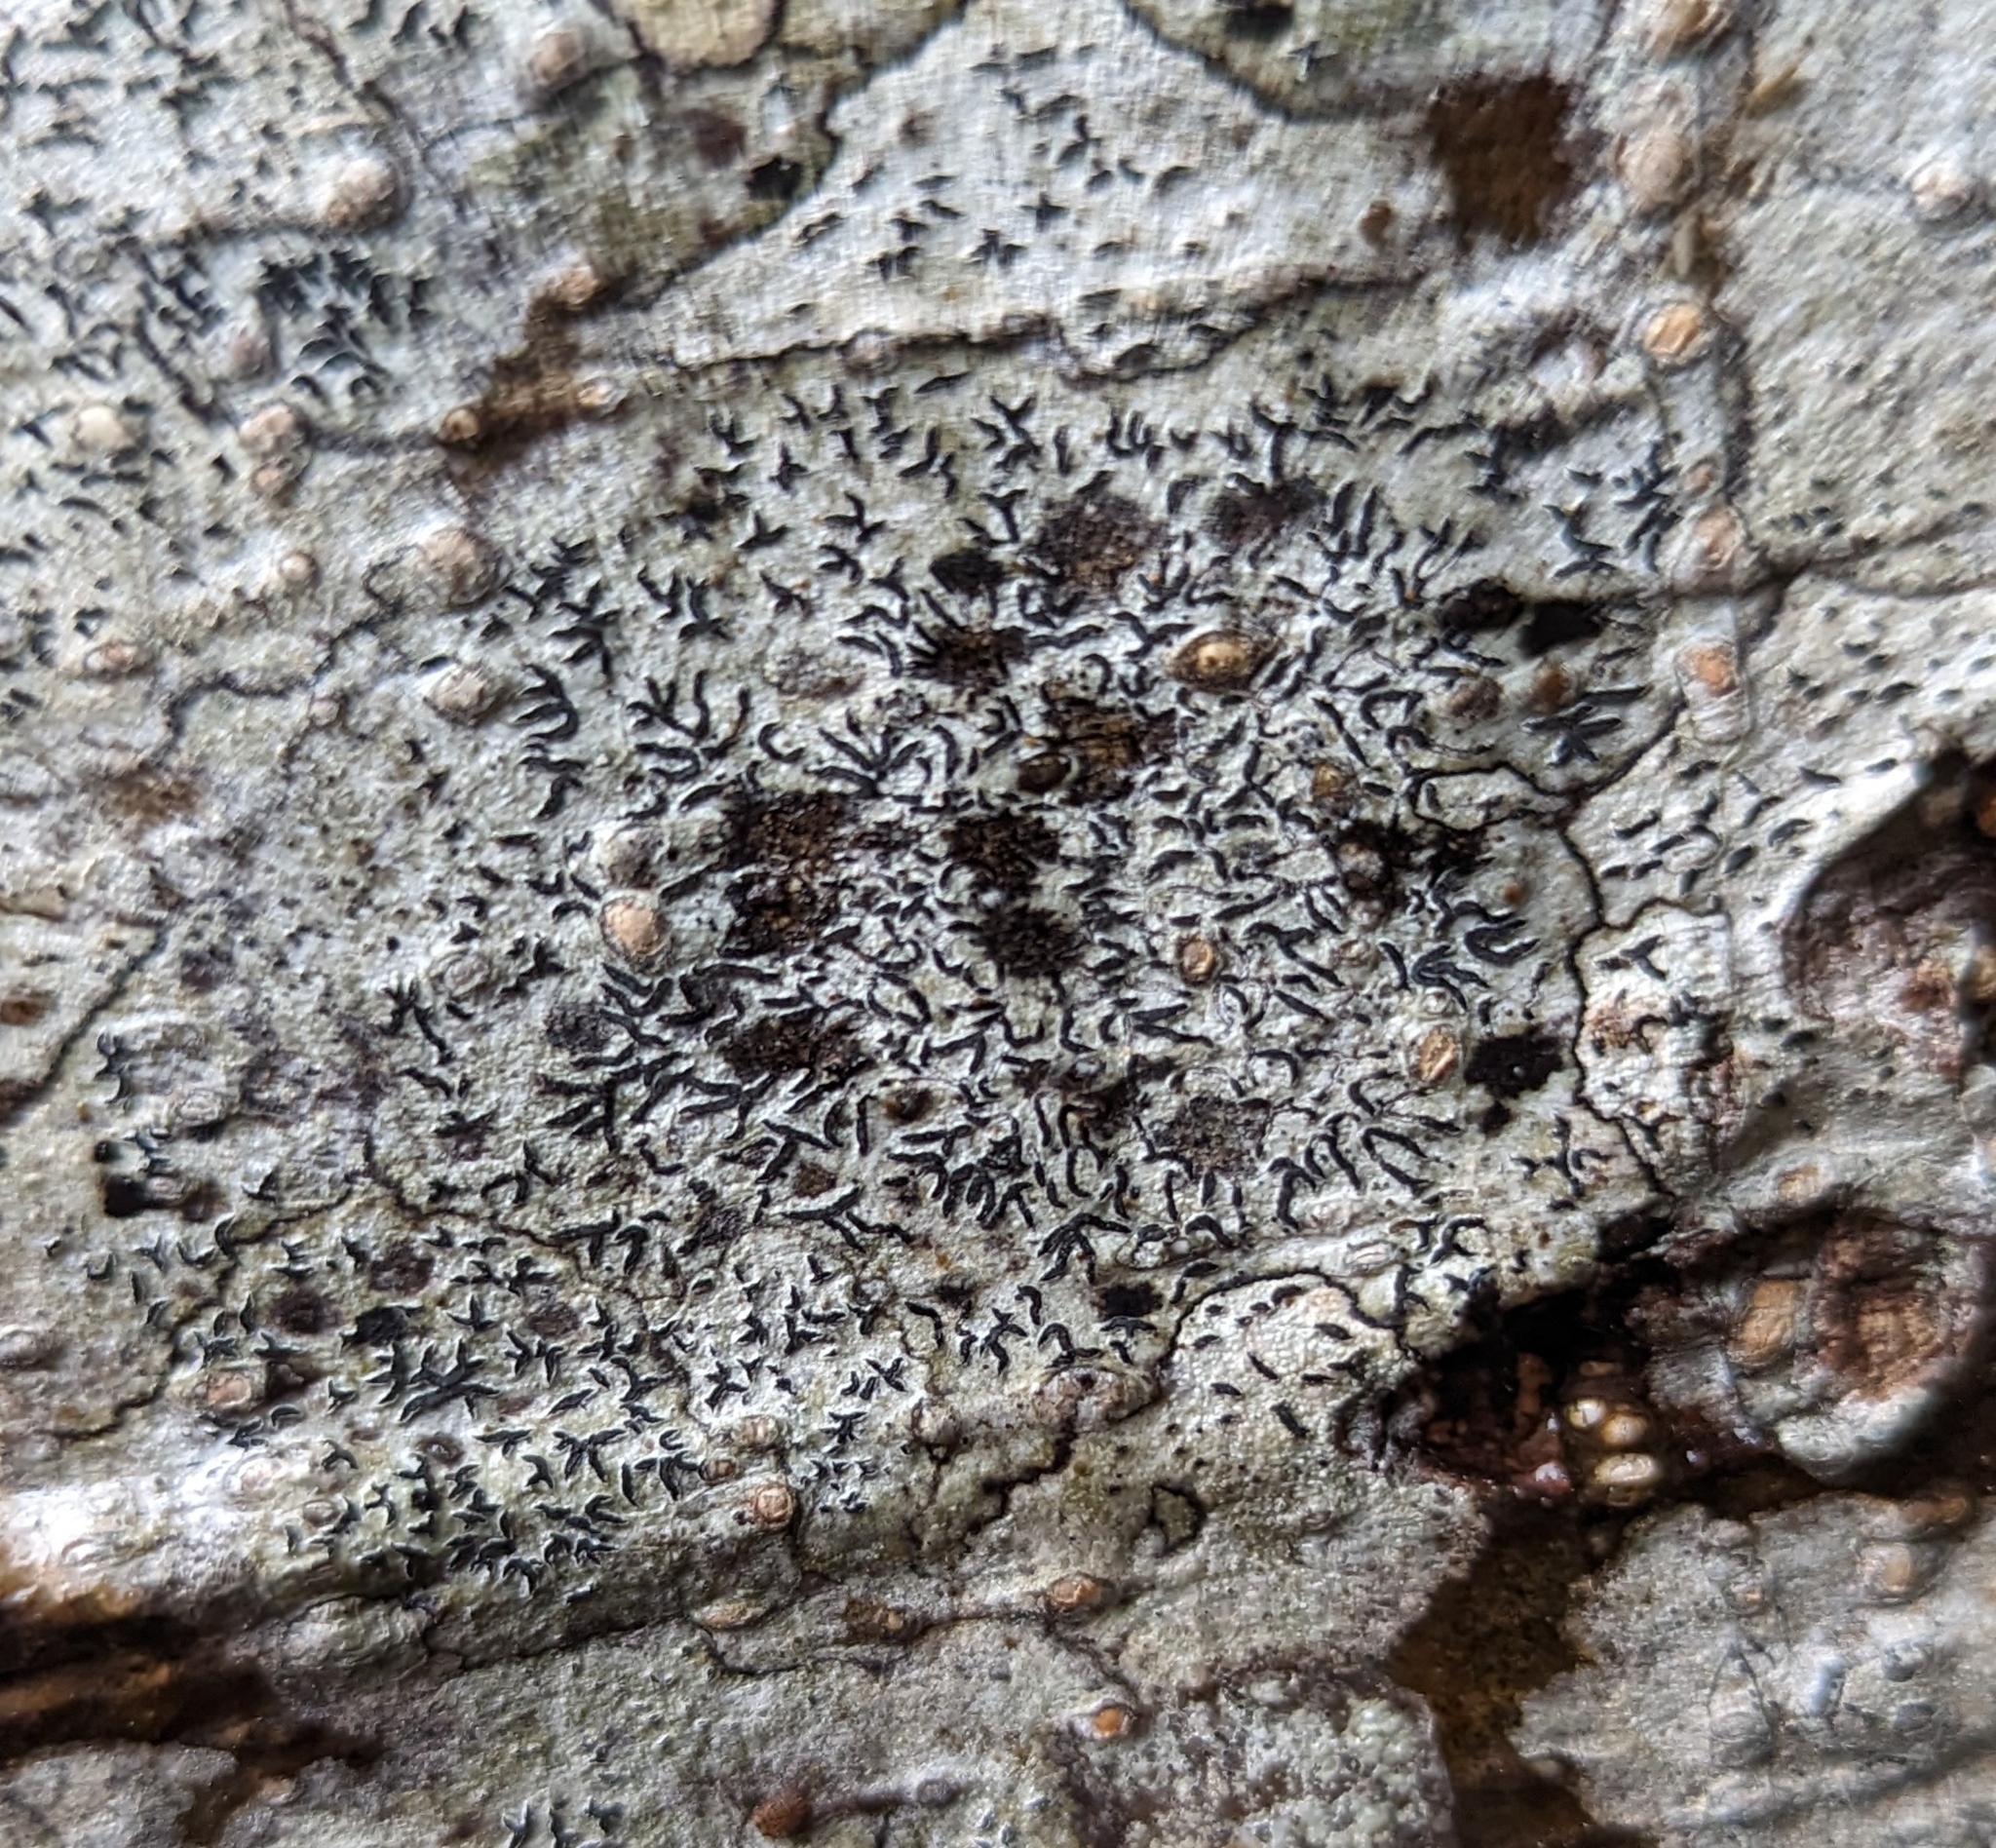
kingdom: Fungi
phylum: Ascomycota
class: Lecanoromycetes
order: Ostropales
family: Graphidaceae
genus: Graphis
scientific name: Graphis scripta
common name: Script lichen
